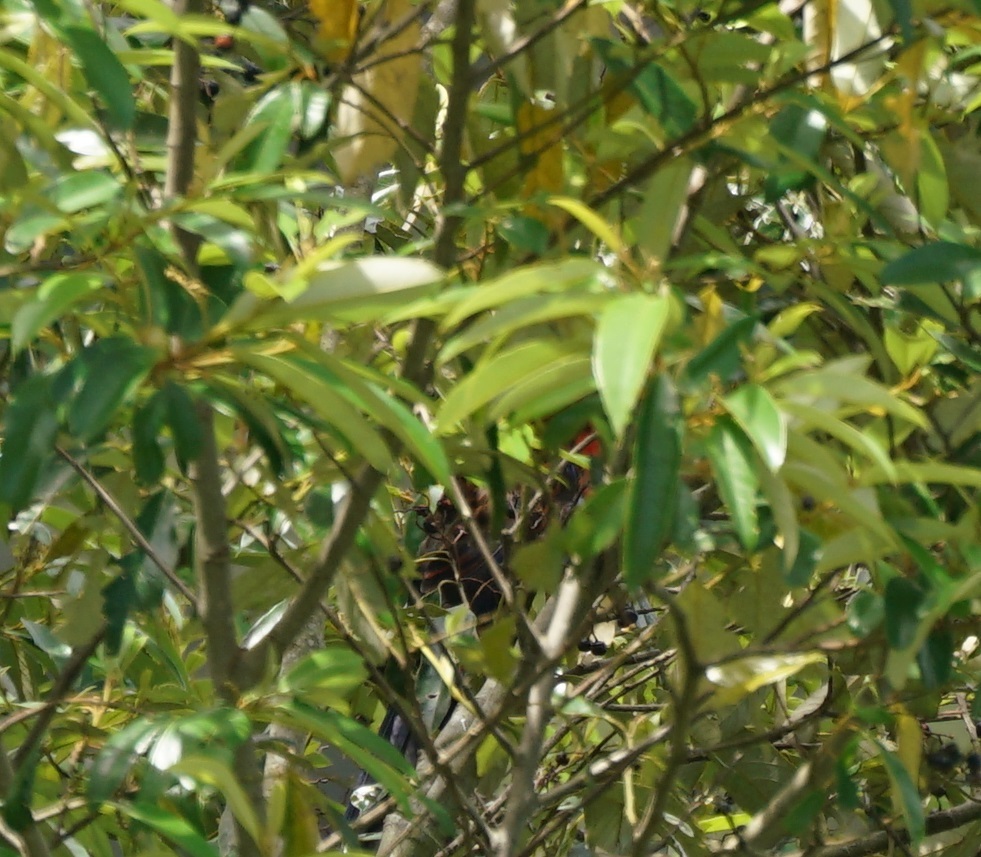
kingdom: Animalia
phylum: Chordata
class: Aves
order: Psittaciformes
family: Psittacidae
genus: Platycercus
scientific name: Platycercus elegans
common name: Crimson rosella
